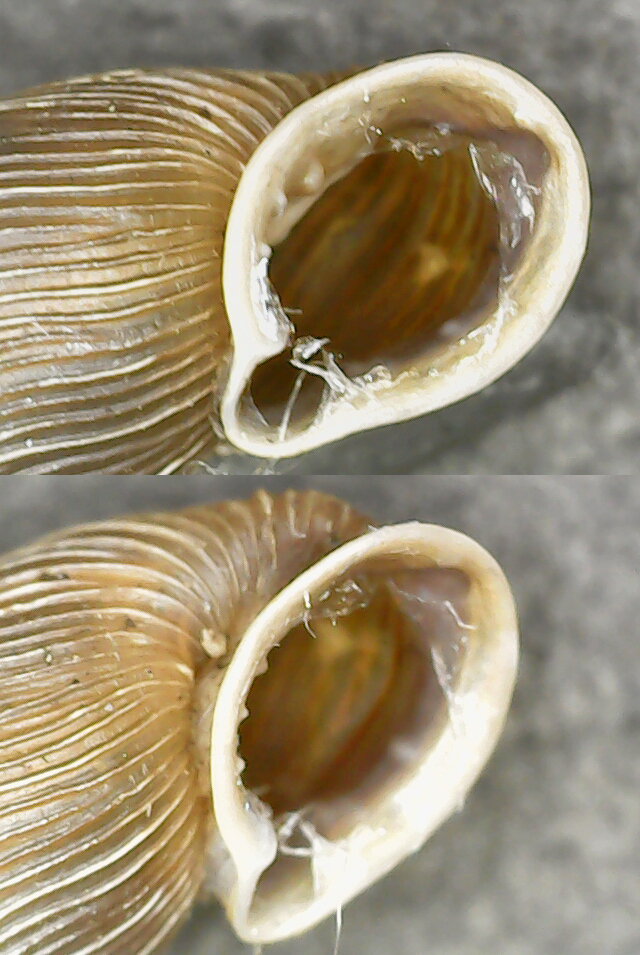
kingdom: Animalia
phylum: Mollusca
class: Gastropoda
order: Stylommatophora
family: Clausiliidae
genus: Laciniaria
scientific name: Laciniaria plicata
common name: Single-lipped door snail
